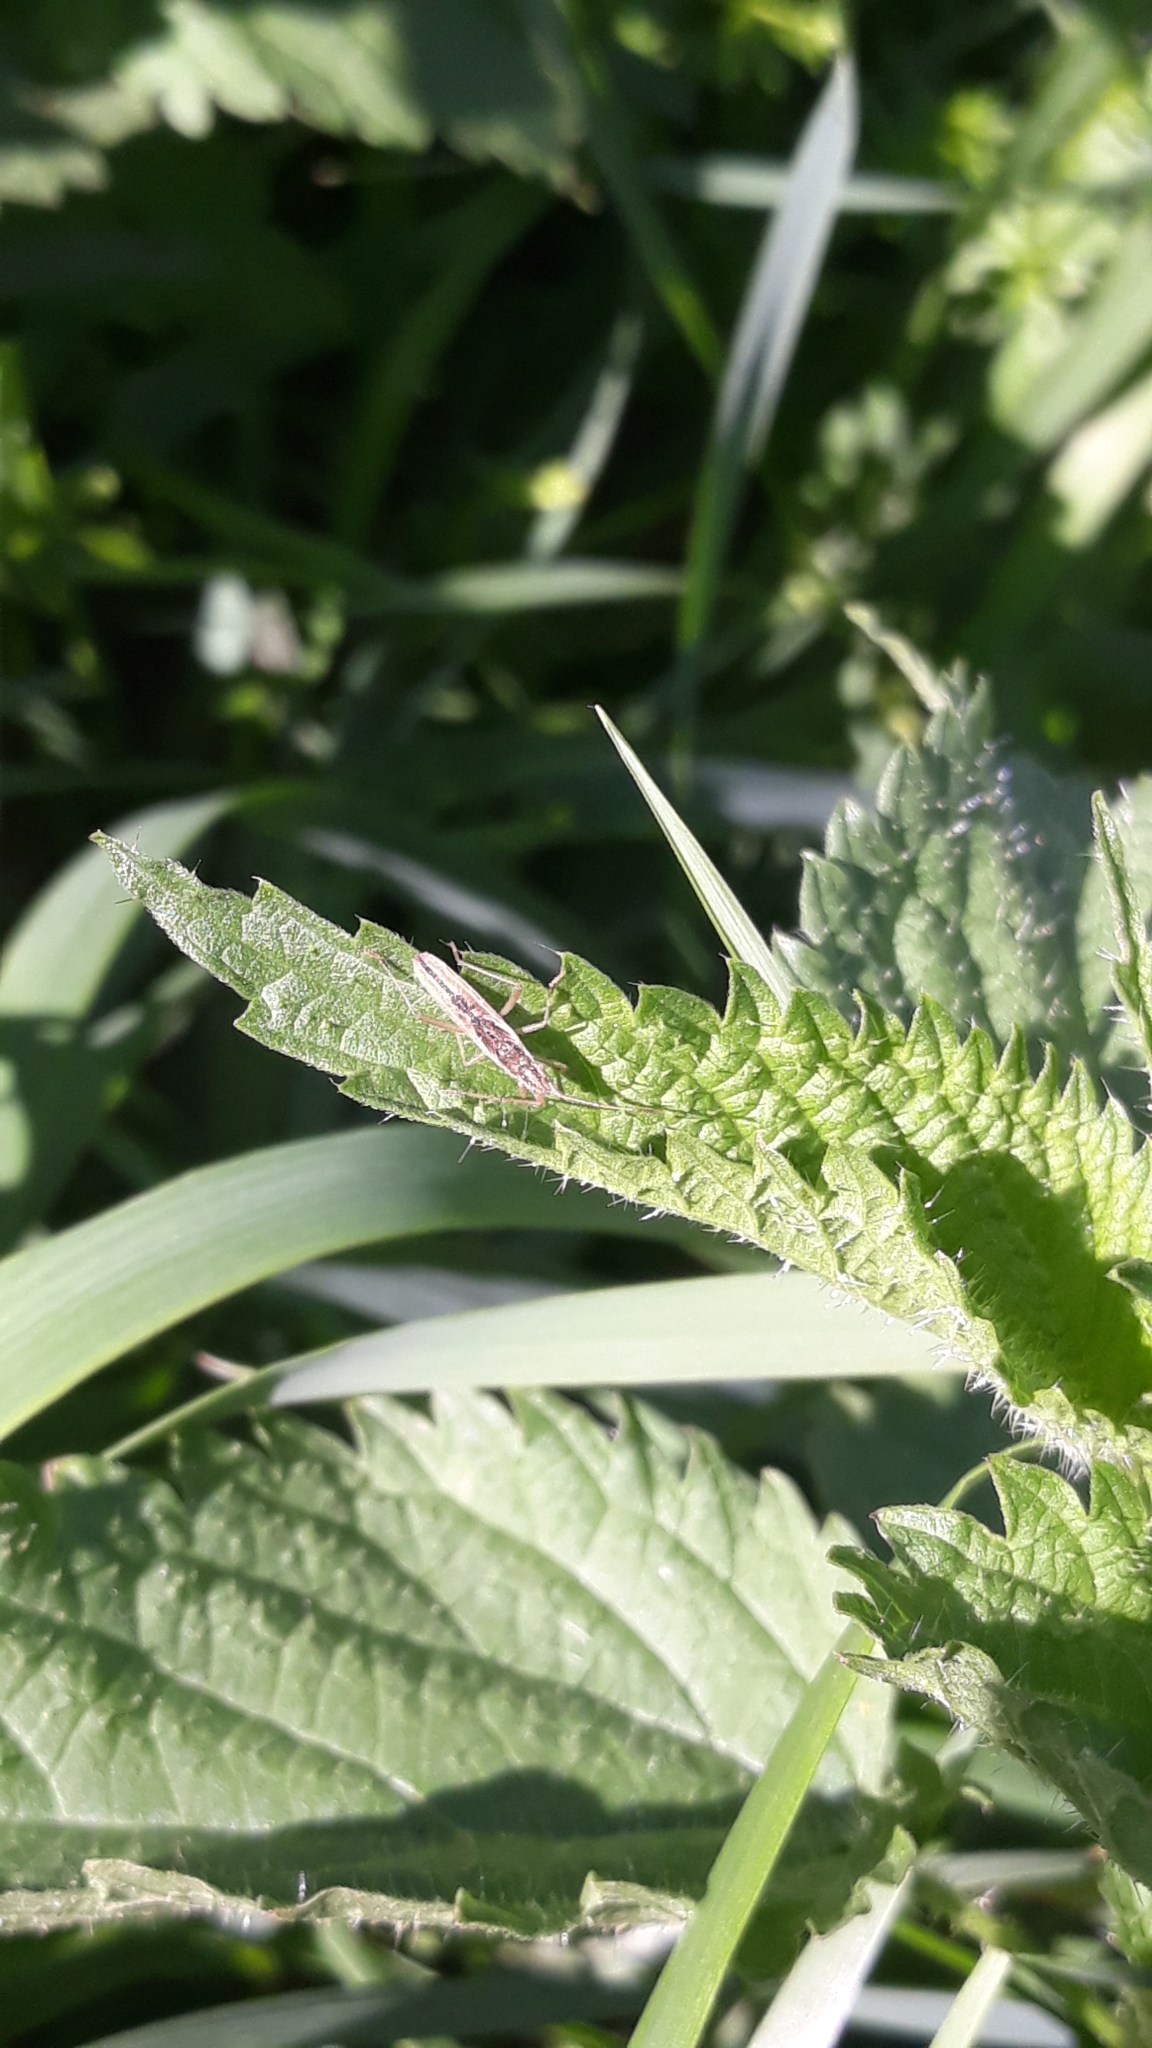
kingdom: Animalia
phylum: Arthropoda
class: Insecta
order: Hemiptera
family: Rhopalidae
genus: Myrmus
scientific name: Myrmus miriformis
